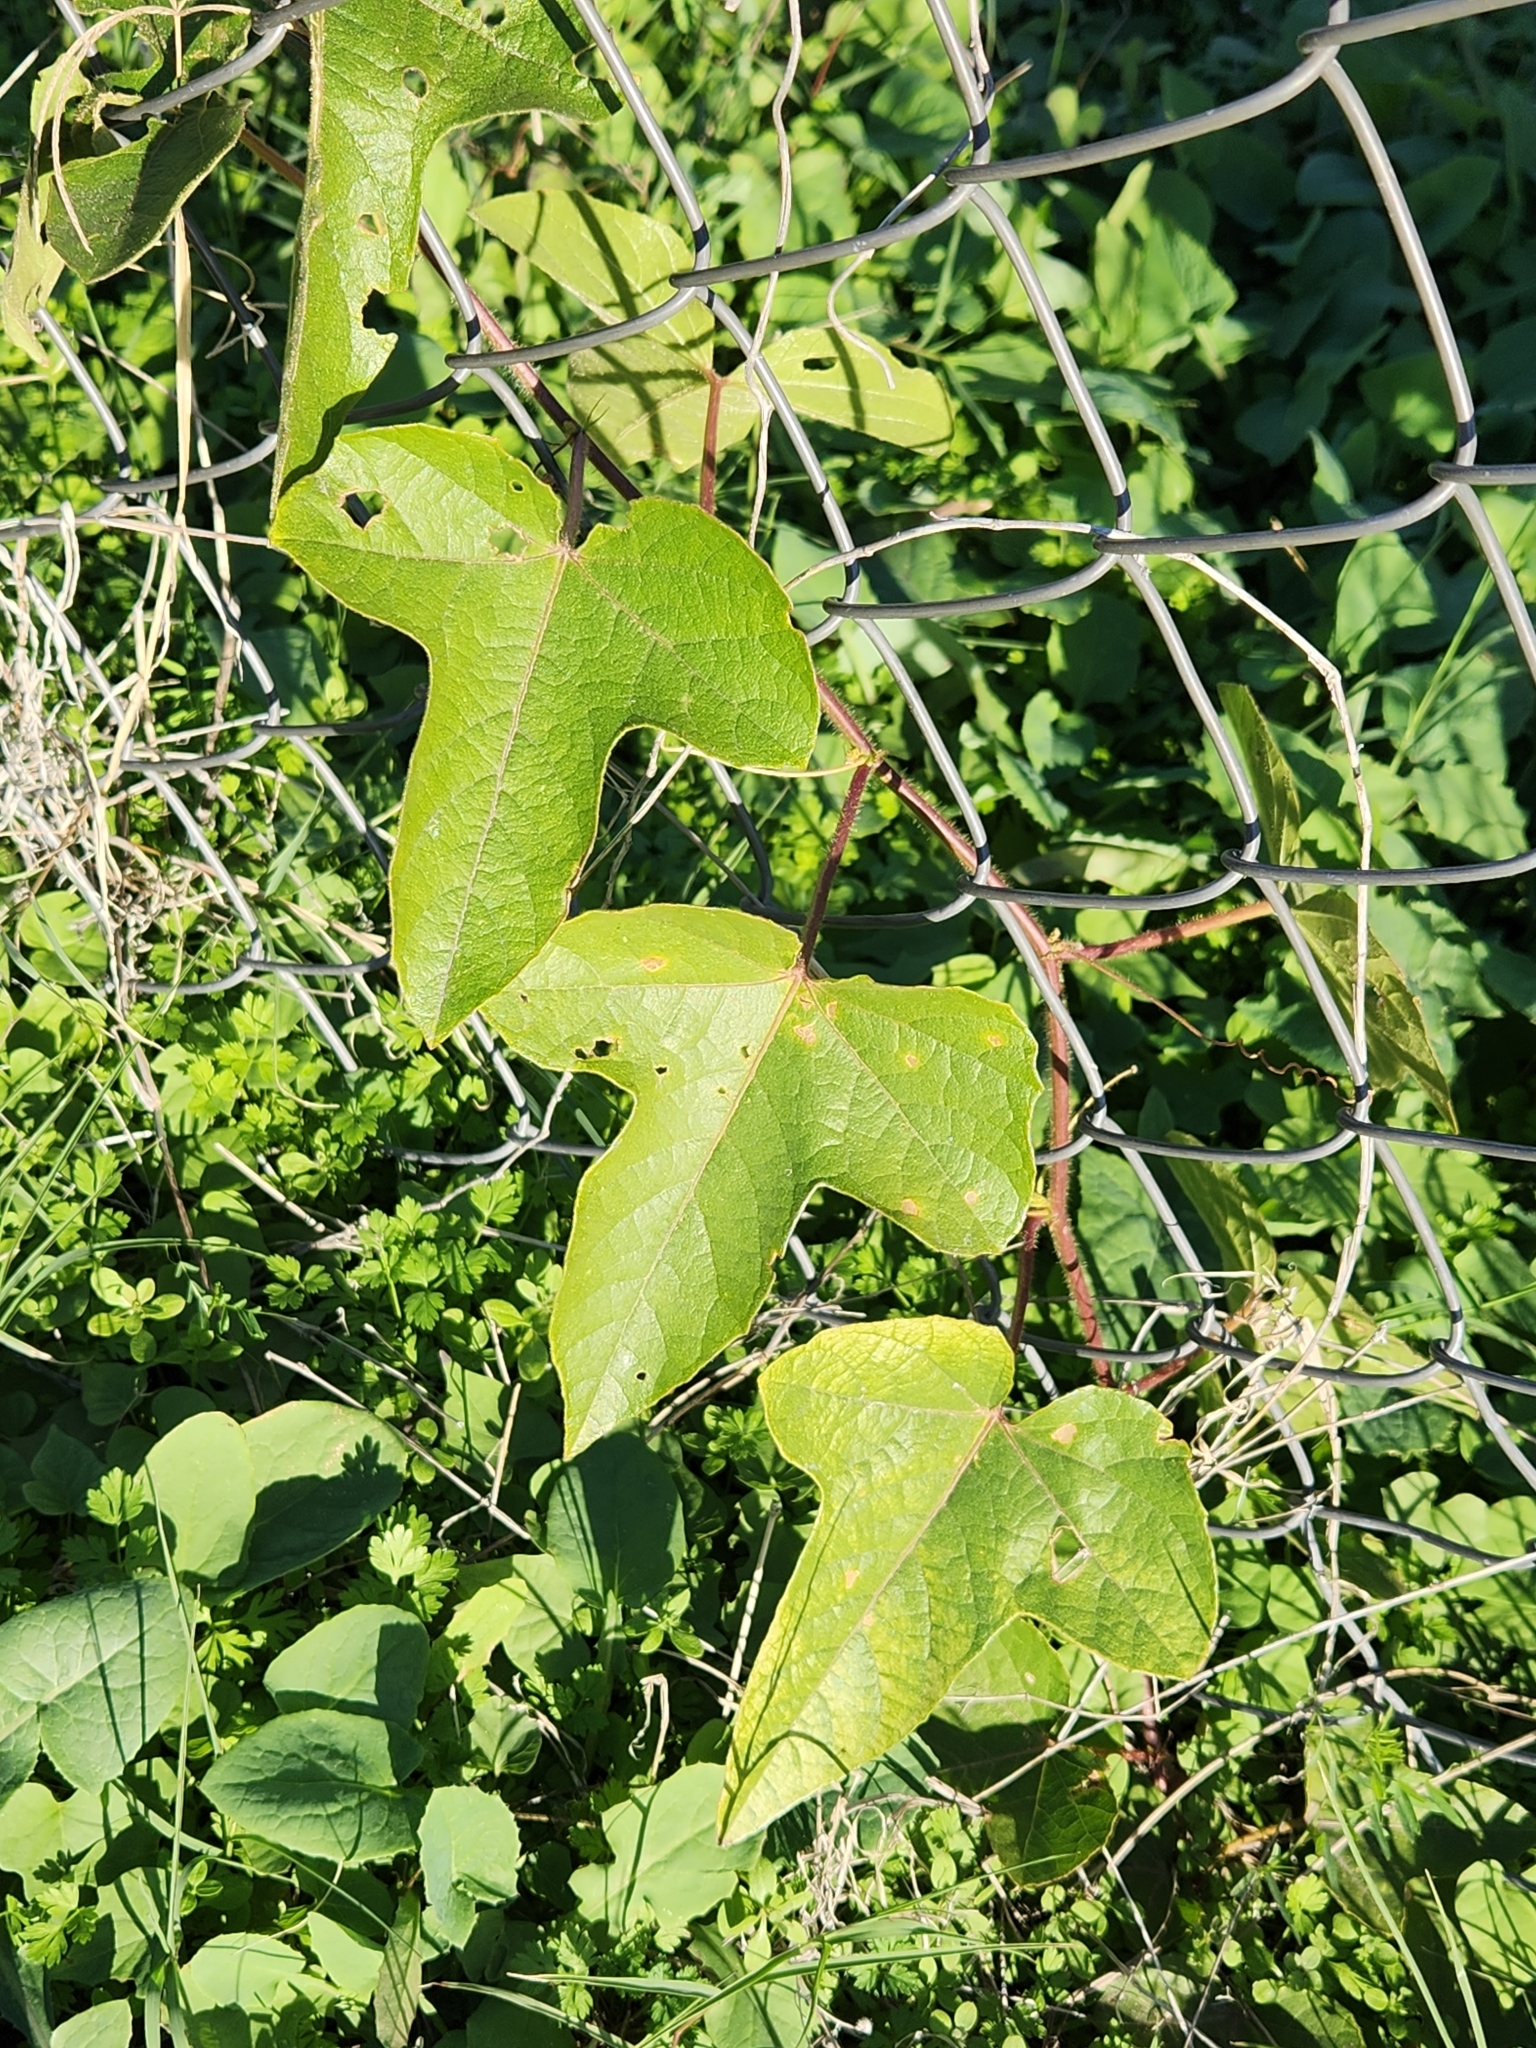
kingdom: Plantae
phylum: Tracheophyta
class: Magnoliopsida
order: Malpighiales
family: Passifloraceae
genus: Passiflora
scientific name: Passiflora
